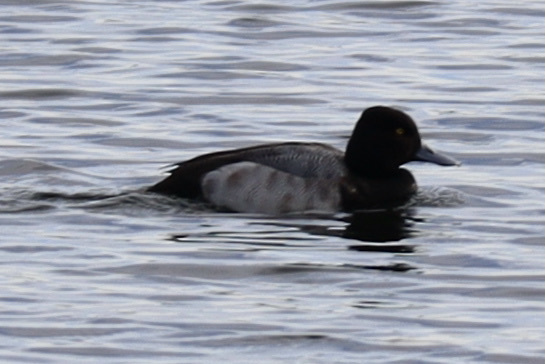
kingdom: Animalia
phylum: Chordata
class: Aves
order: Anseriformes
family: Anatidae
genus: Aythya
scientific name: Aythya affinis
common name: Lesser scaup
